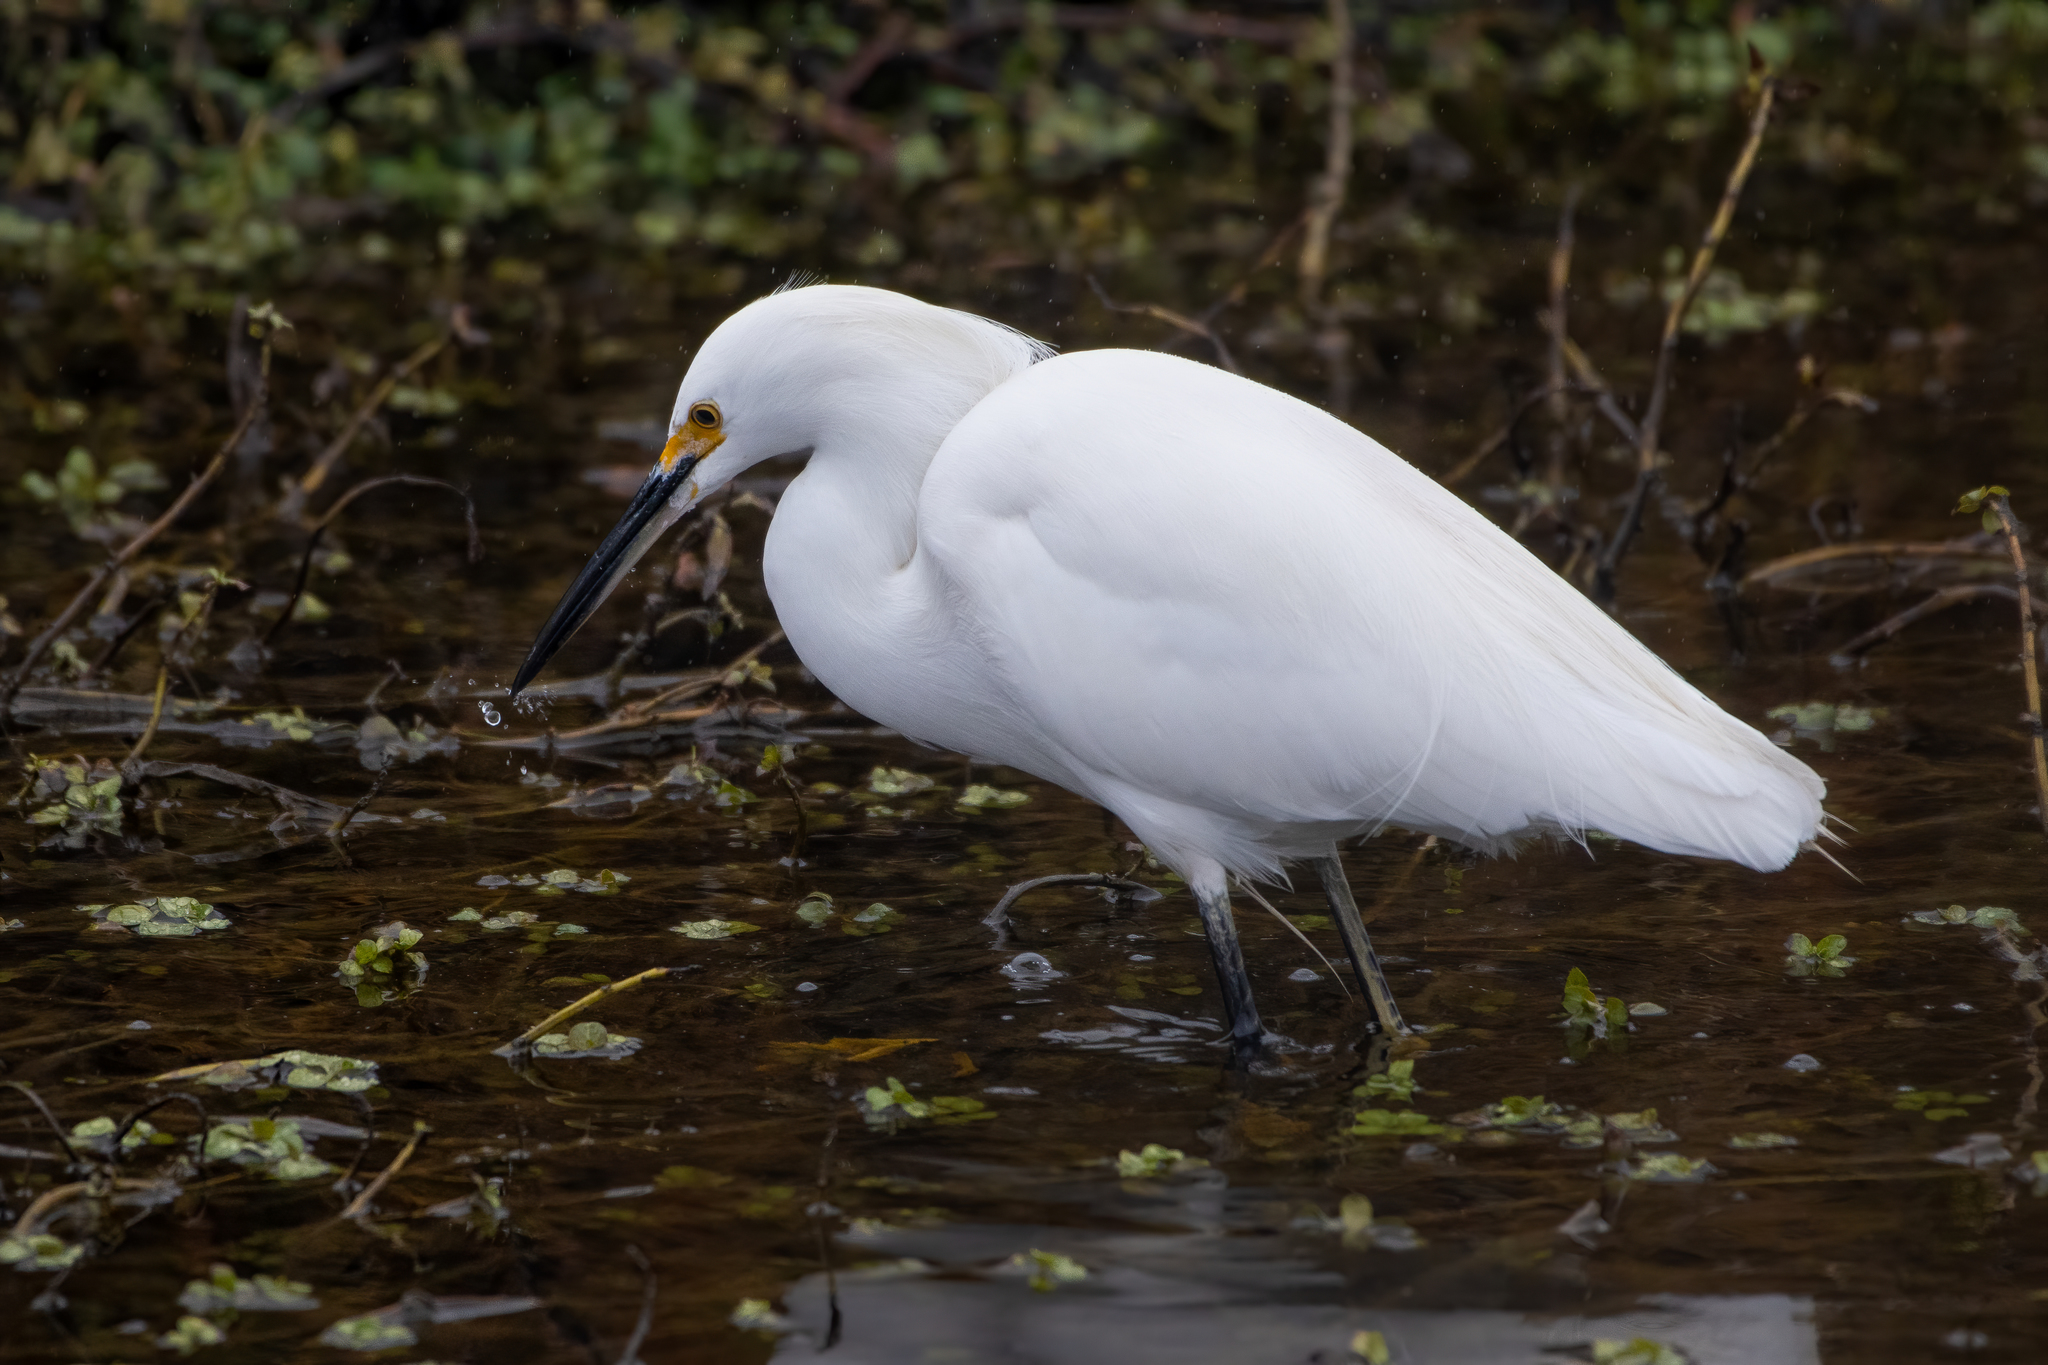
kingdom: Animalia
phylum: Chordata
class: Aves
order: Pelecaniformes
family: Ardeidae
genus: Egretta
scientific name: Egretta thula
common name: Snowy egret
